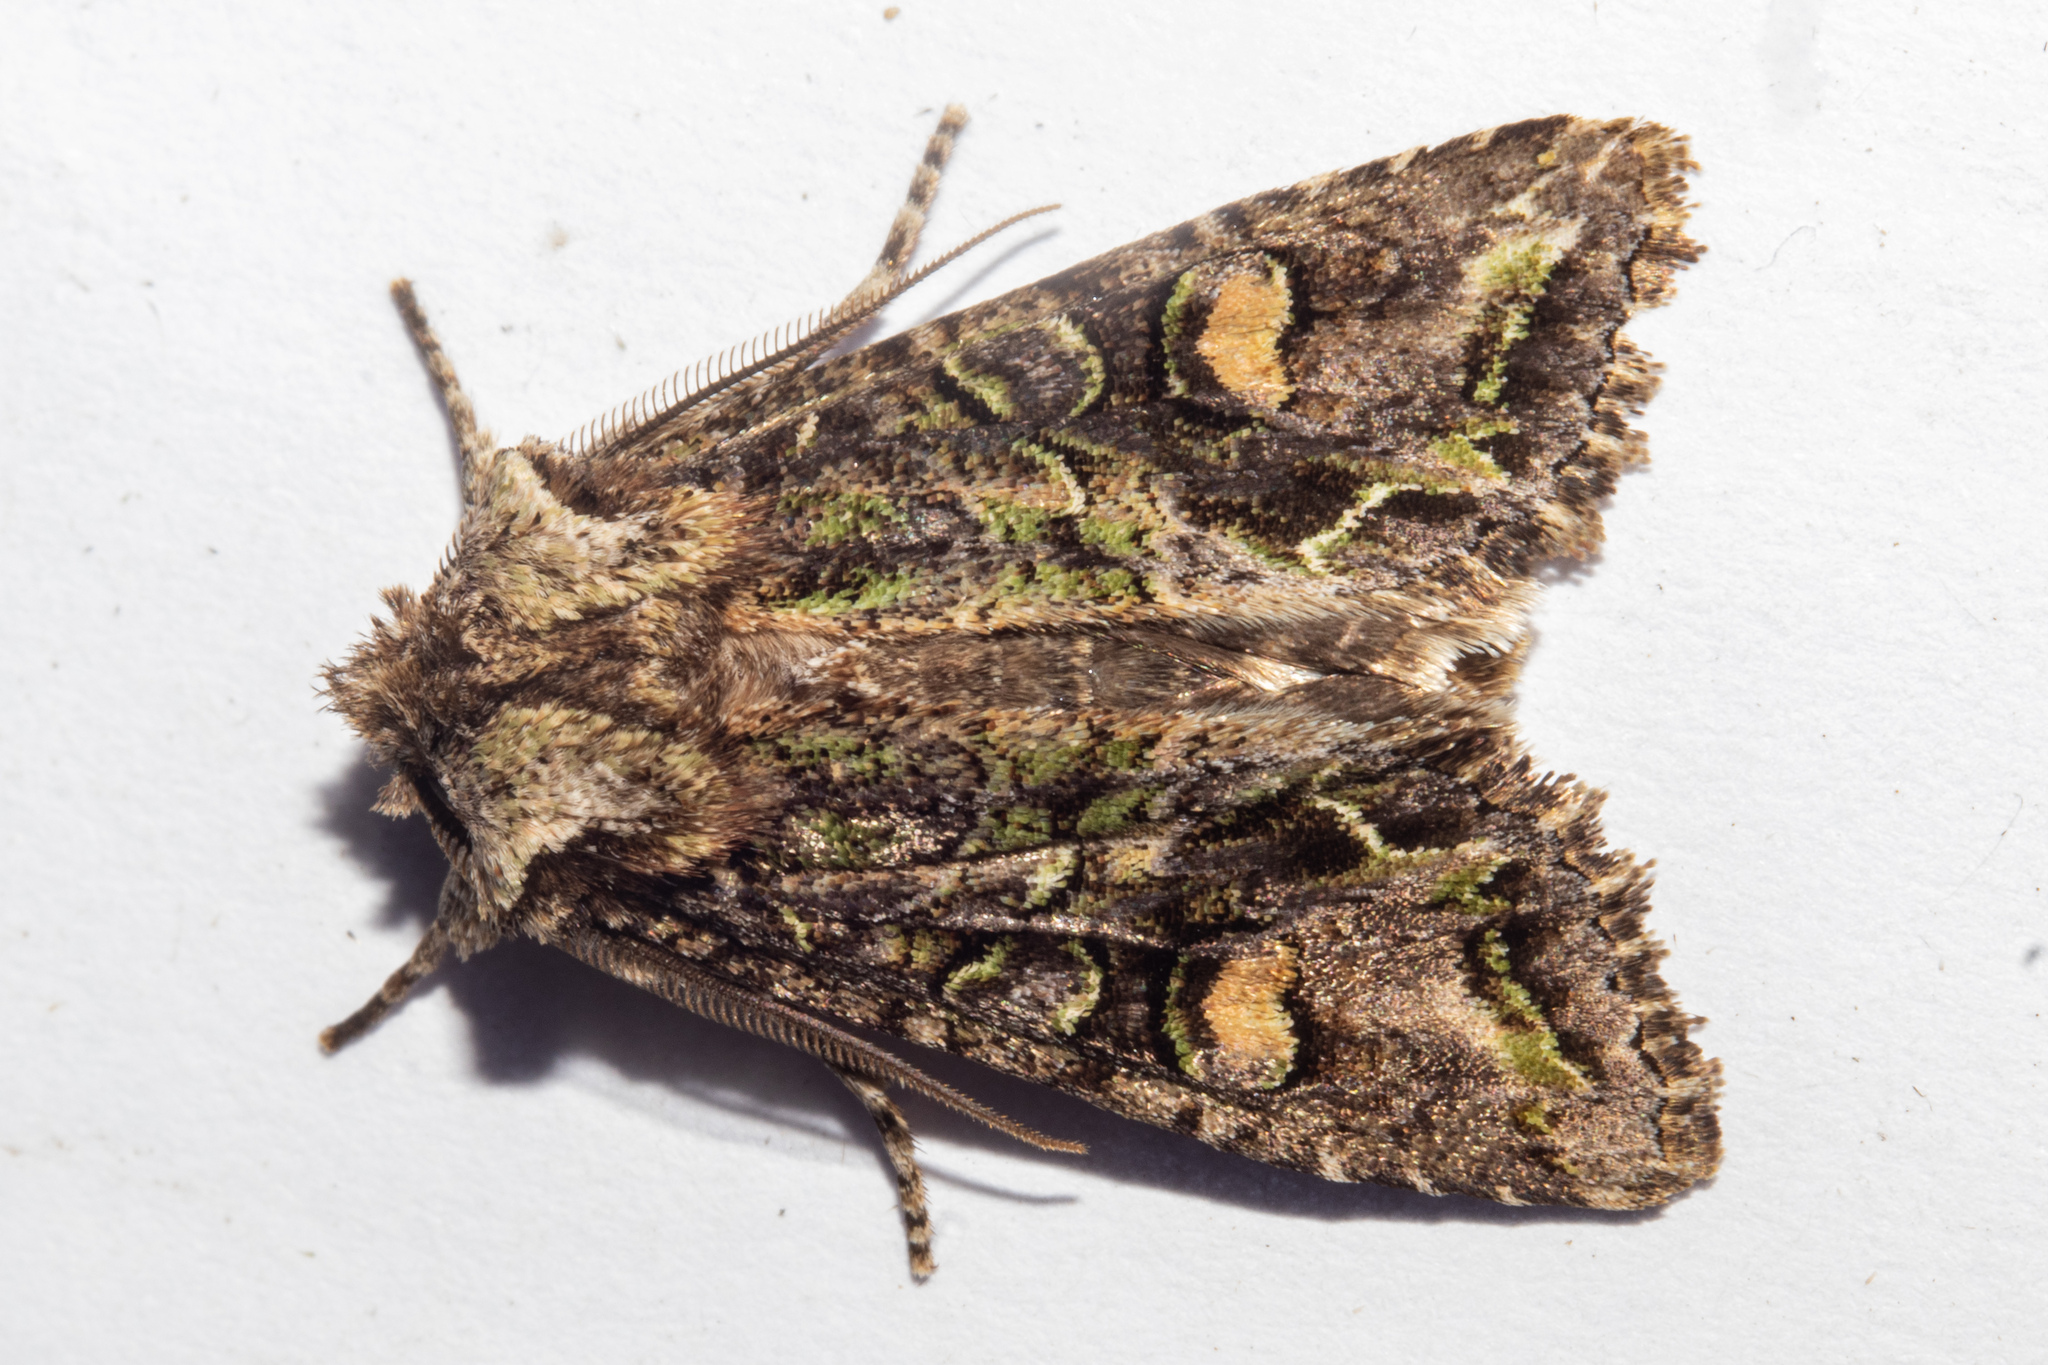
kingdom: Animalia
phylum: Arthropoda
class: Insecta
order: Lepidoptera
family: Noctuidae
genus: Ichneutica
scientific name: Ichneutica insignis
